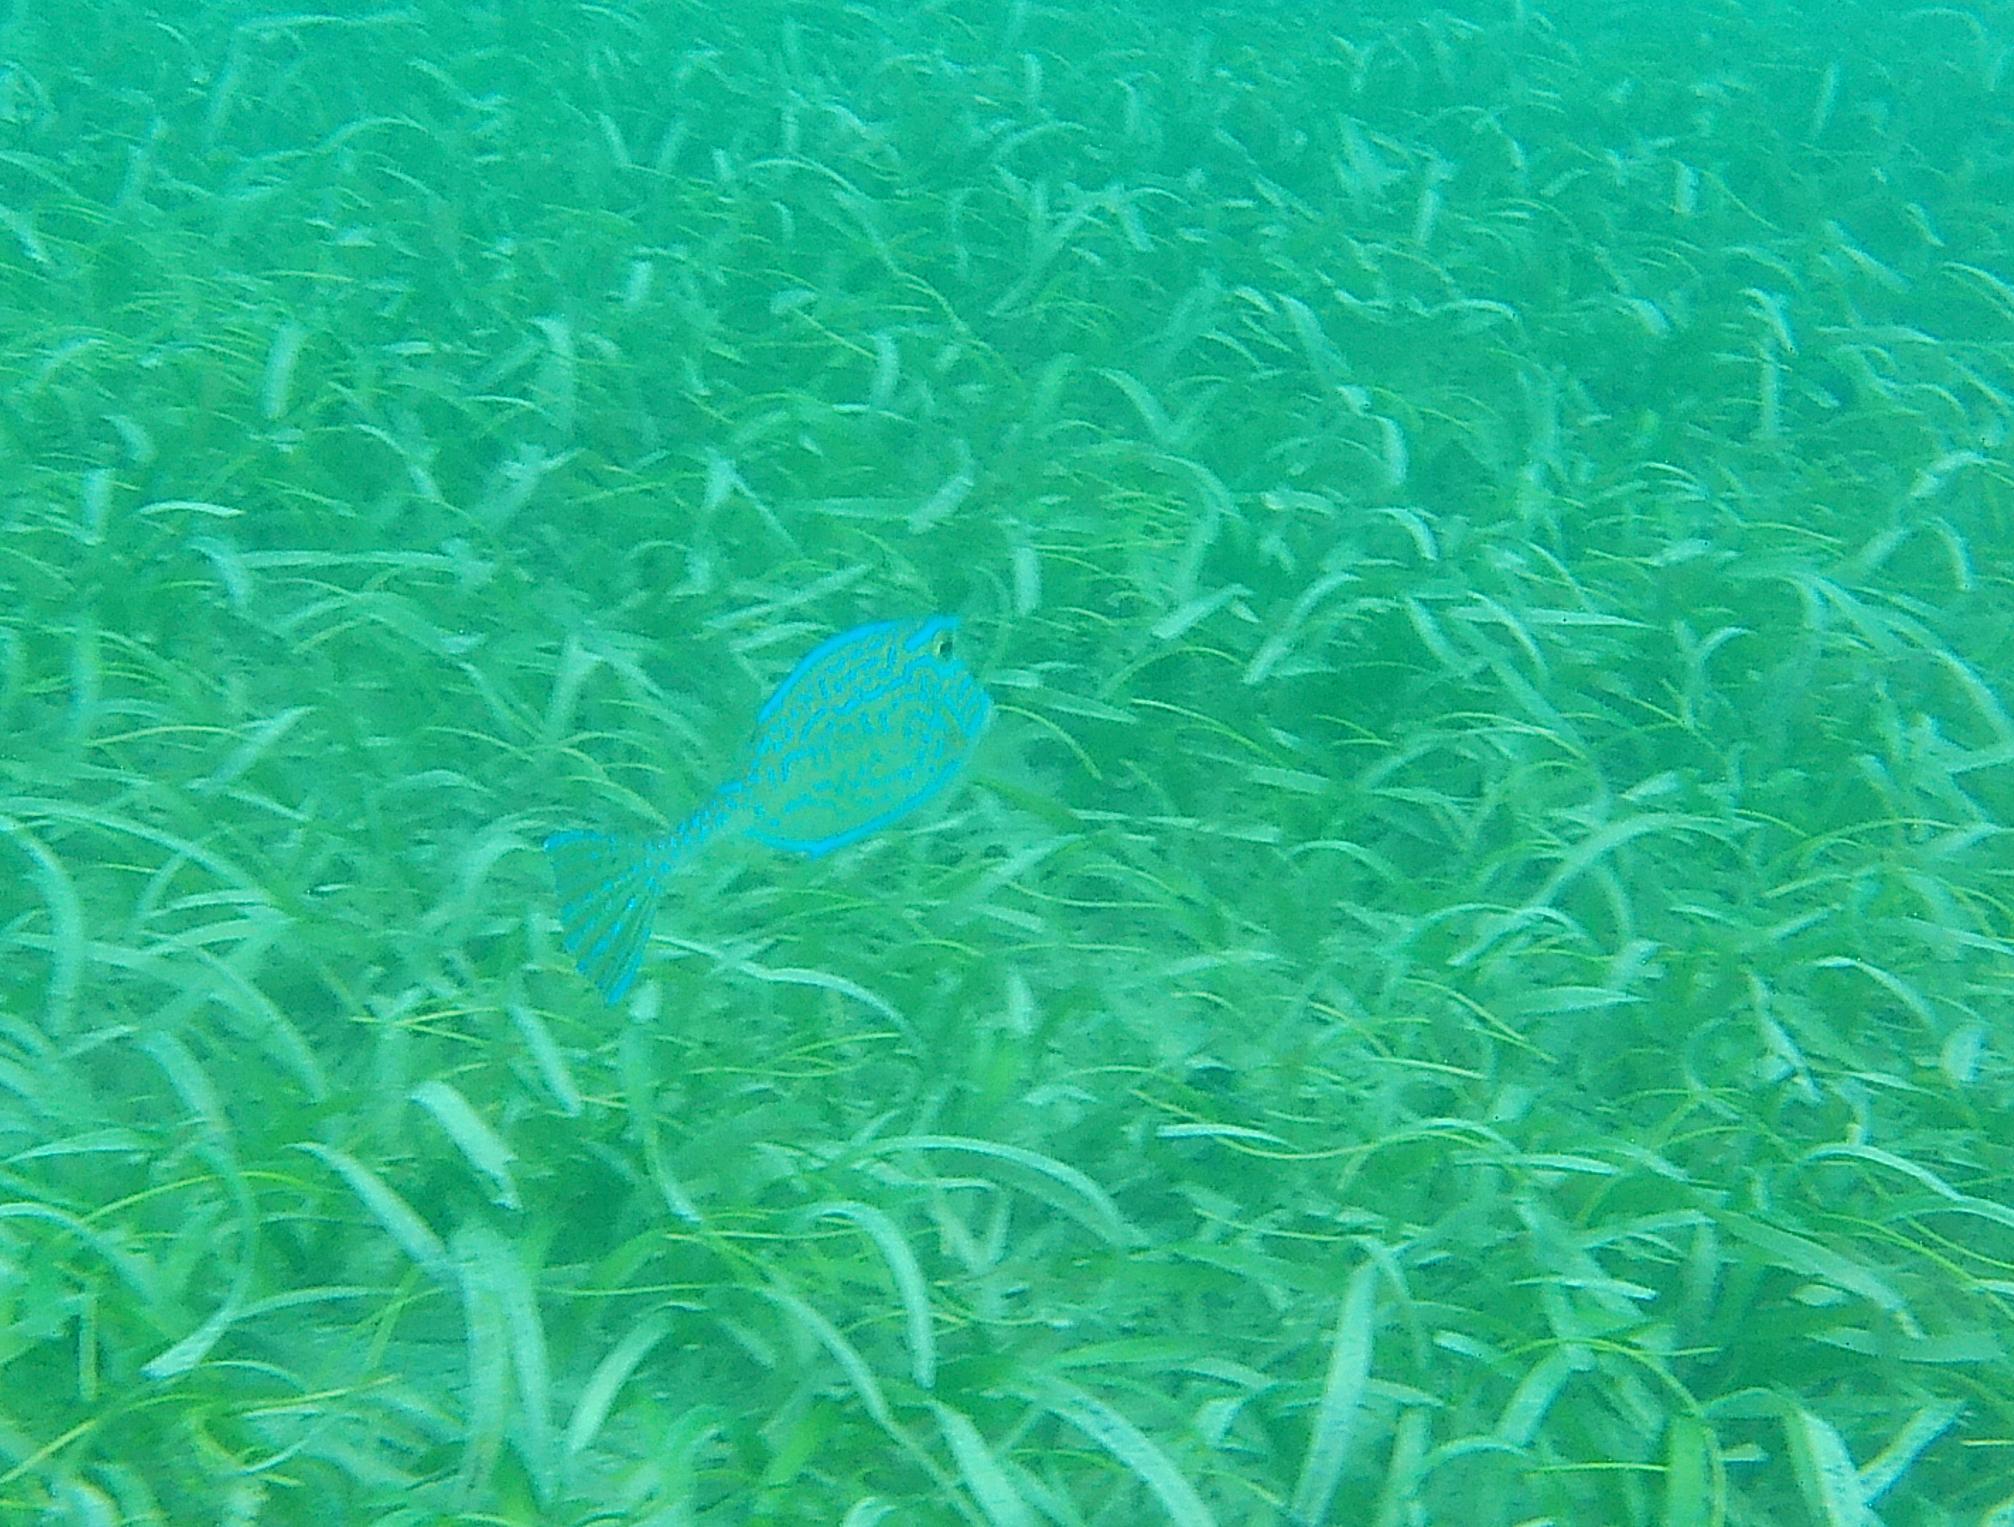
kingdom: Animalia
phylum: Chordata
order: Tetraodontiformes
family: Ostraciidae
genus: Acanthostracion
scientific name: Acanthostracion quadricornis
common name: Scrawled cowfish
